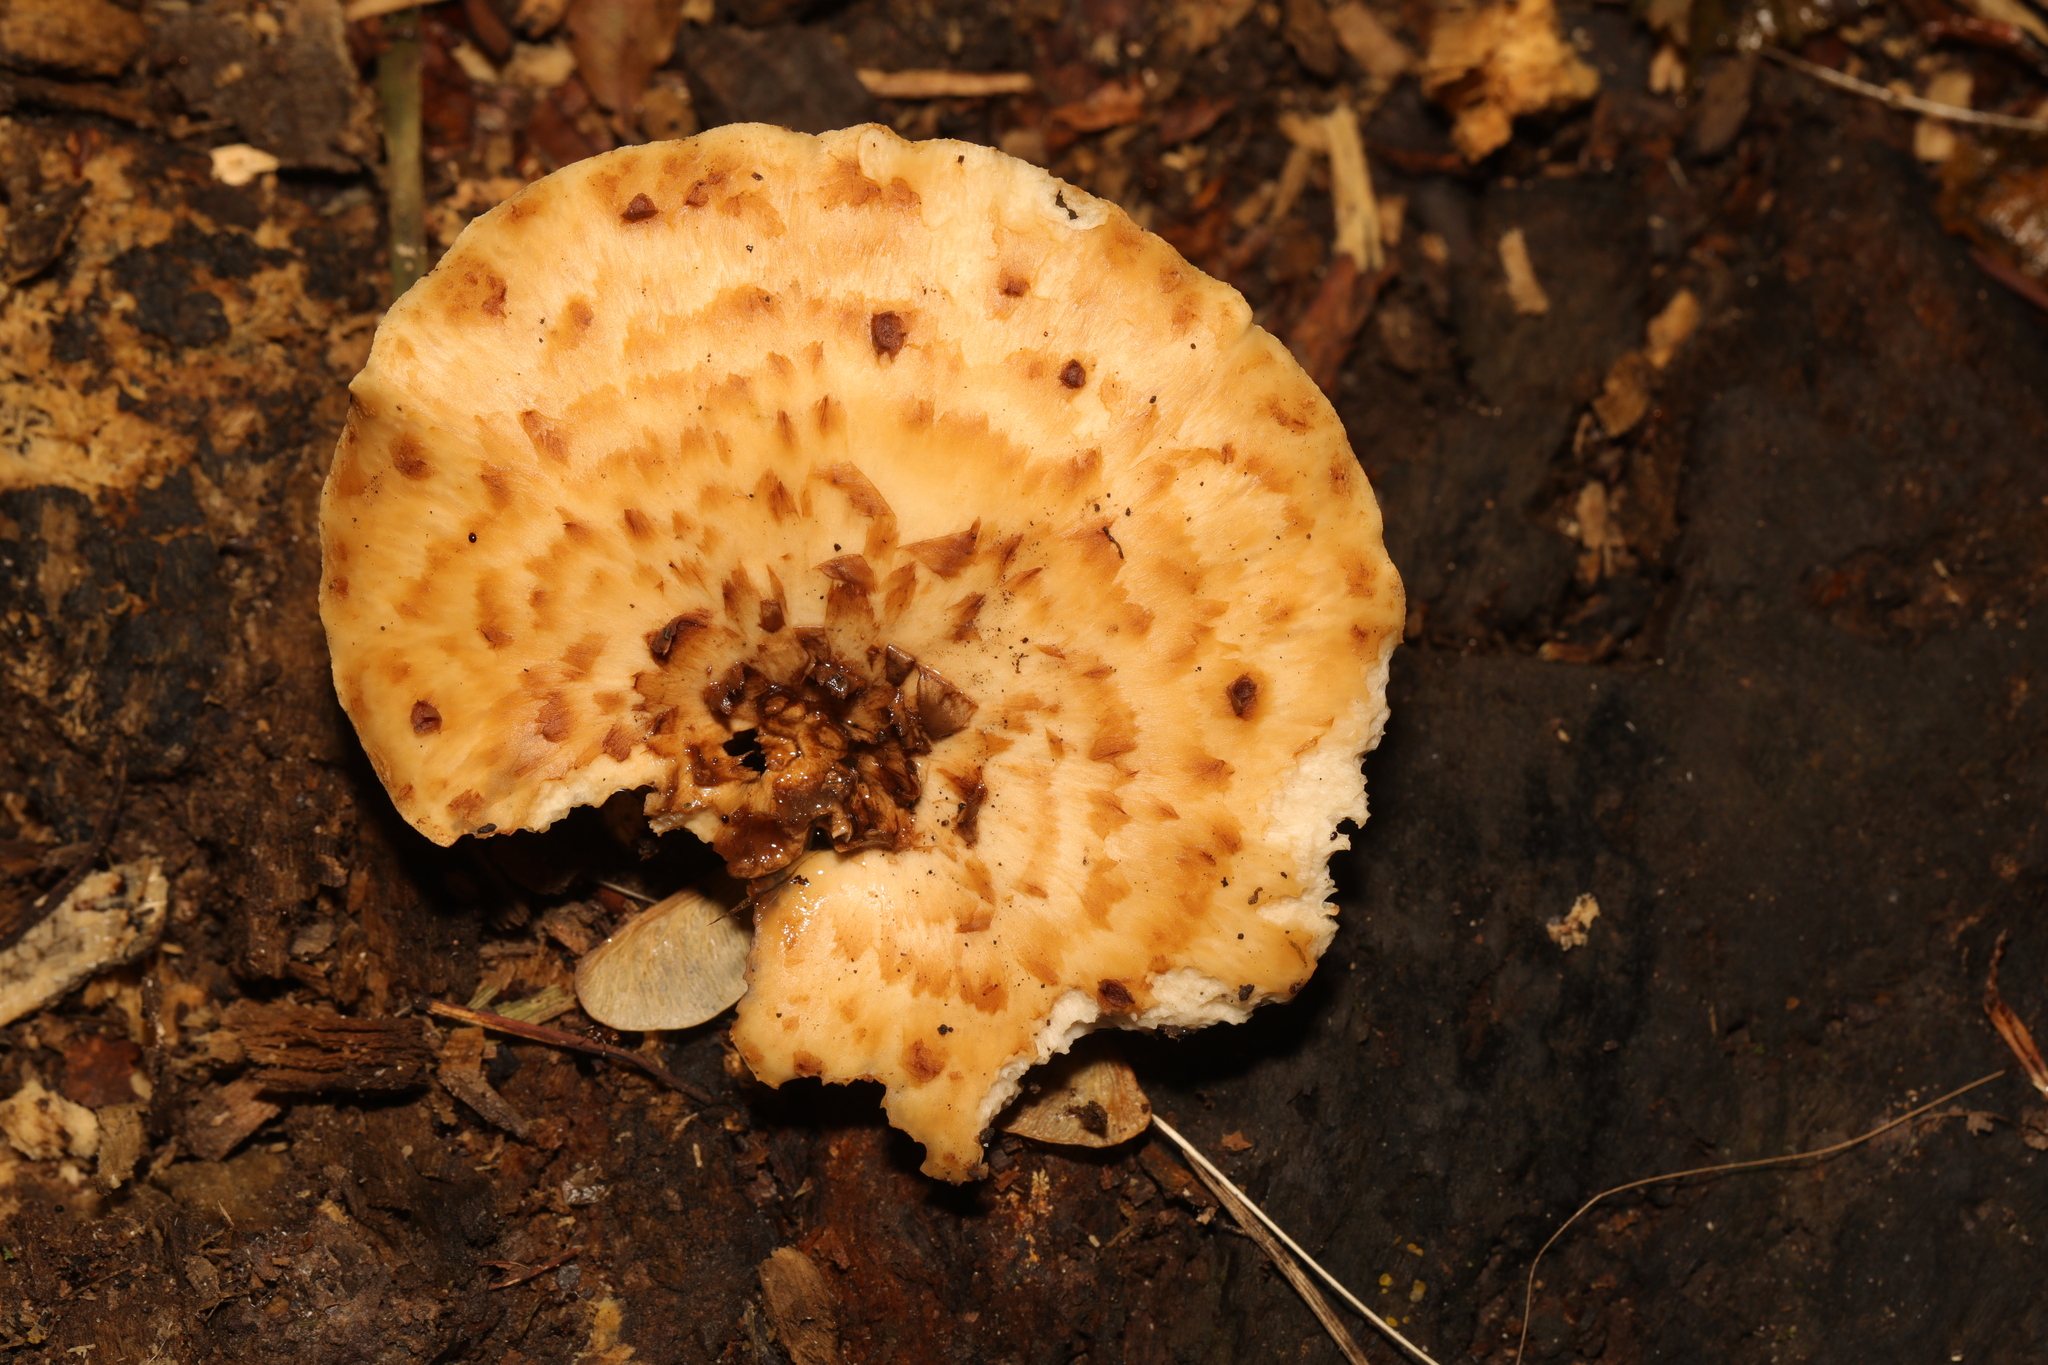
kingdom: Fungi
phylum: Basidiomycota
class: Agaricomycetes
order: Polyporales
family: Polyporaceae
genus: Cerioporus
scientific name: Cerioporus squamosus
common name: Dryad's saddle
